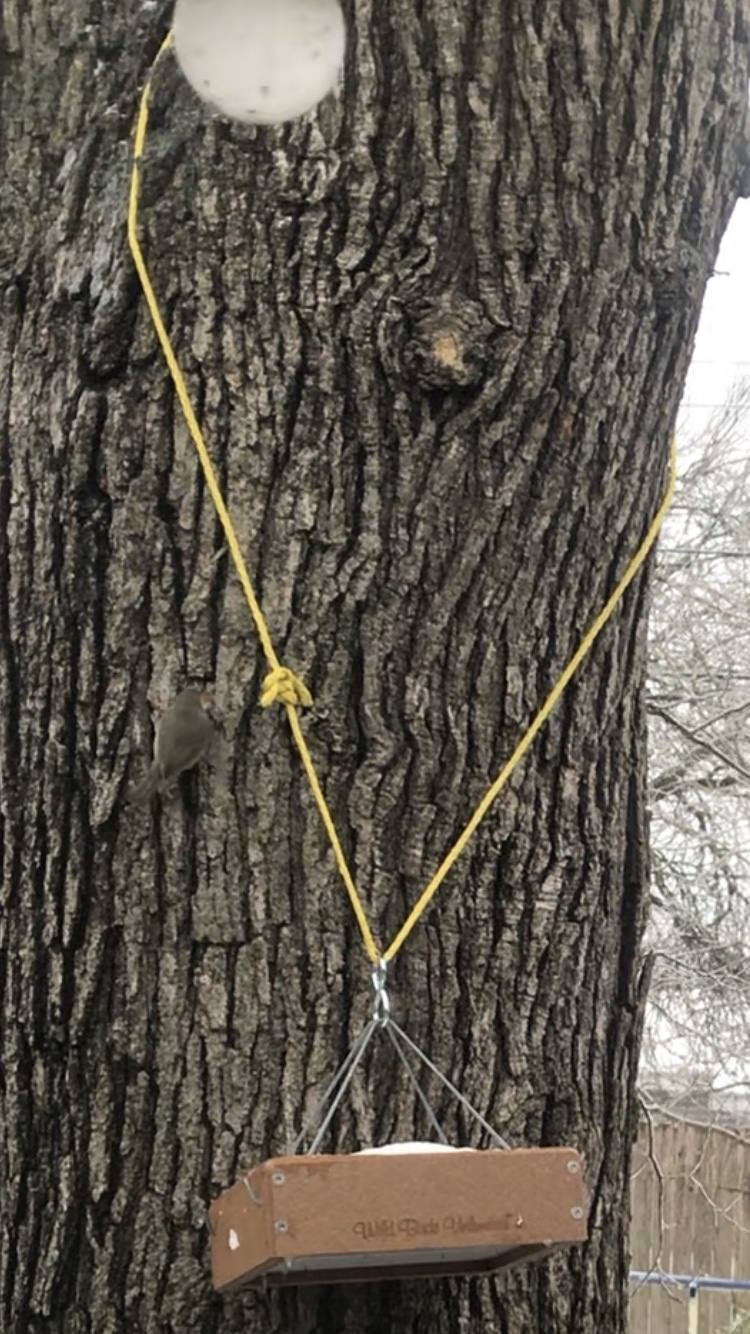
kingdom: Animalia
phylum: Chordata
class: Aves
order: Passeriformes
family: Parulidae
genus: Leiothlypis
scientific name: Leiothlypis celata
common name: Orange-crowned warbler
